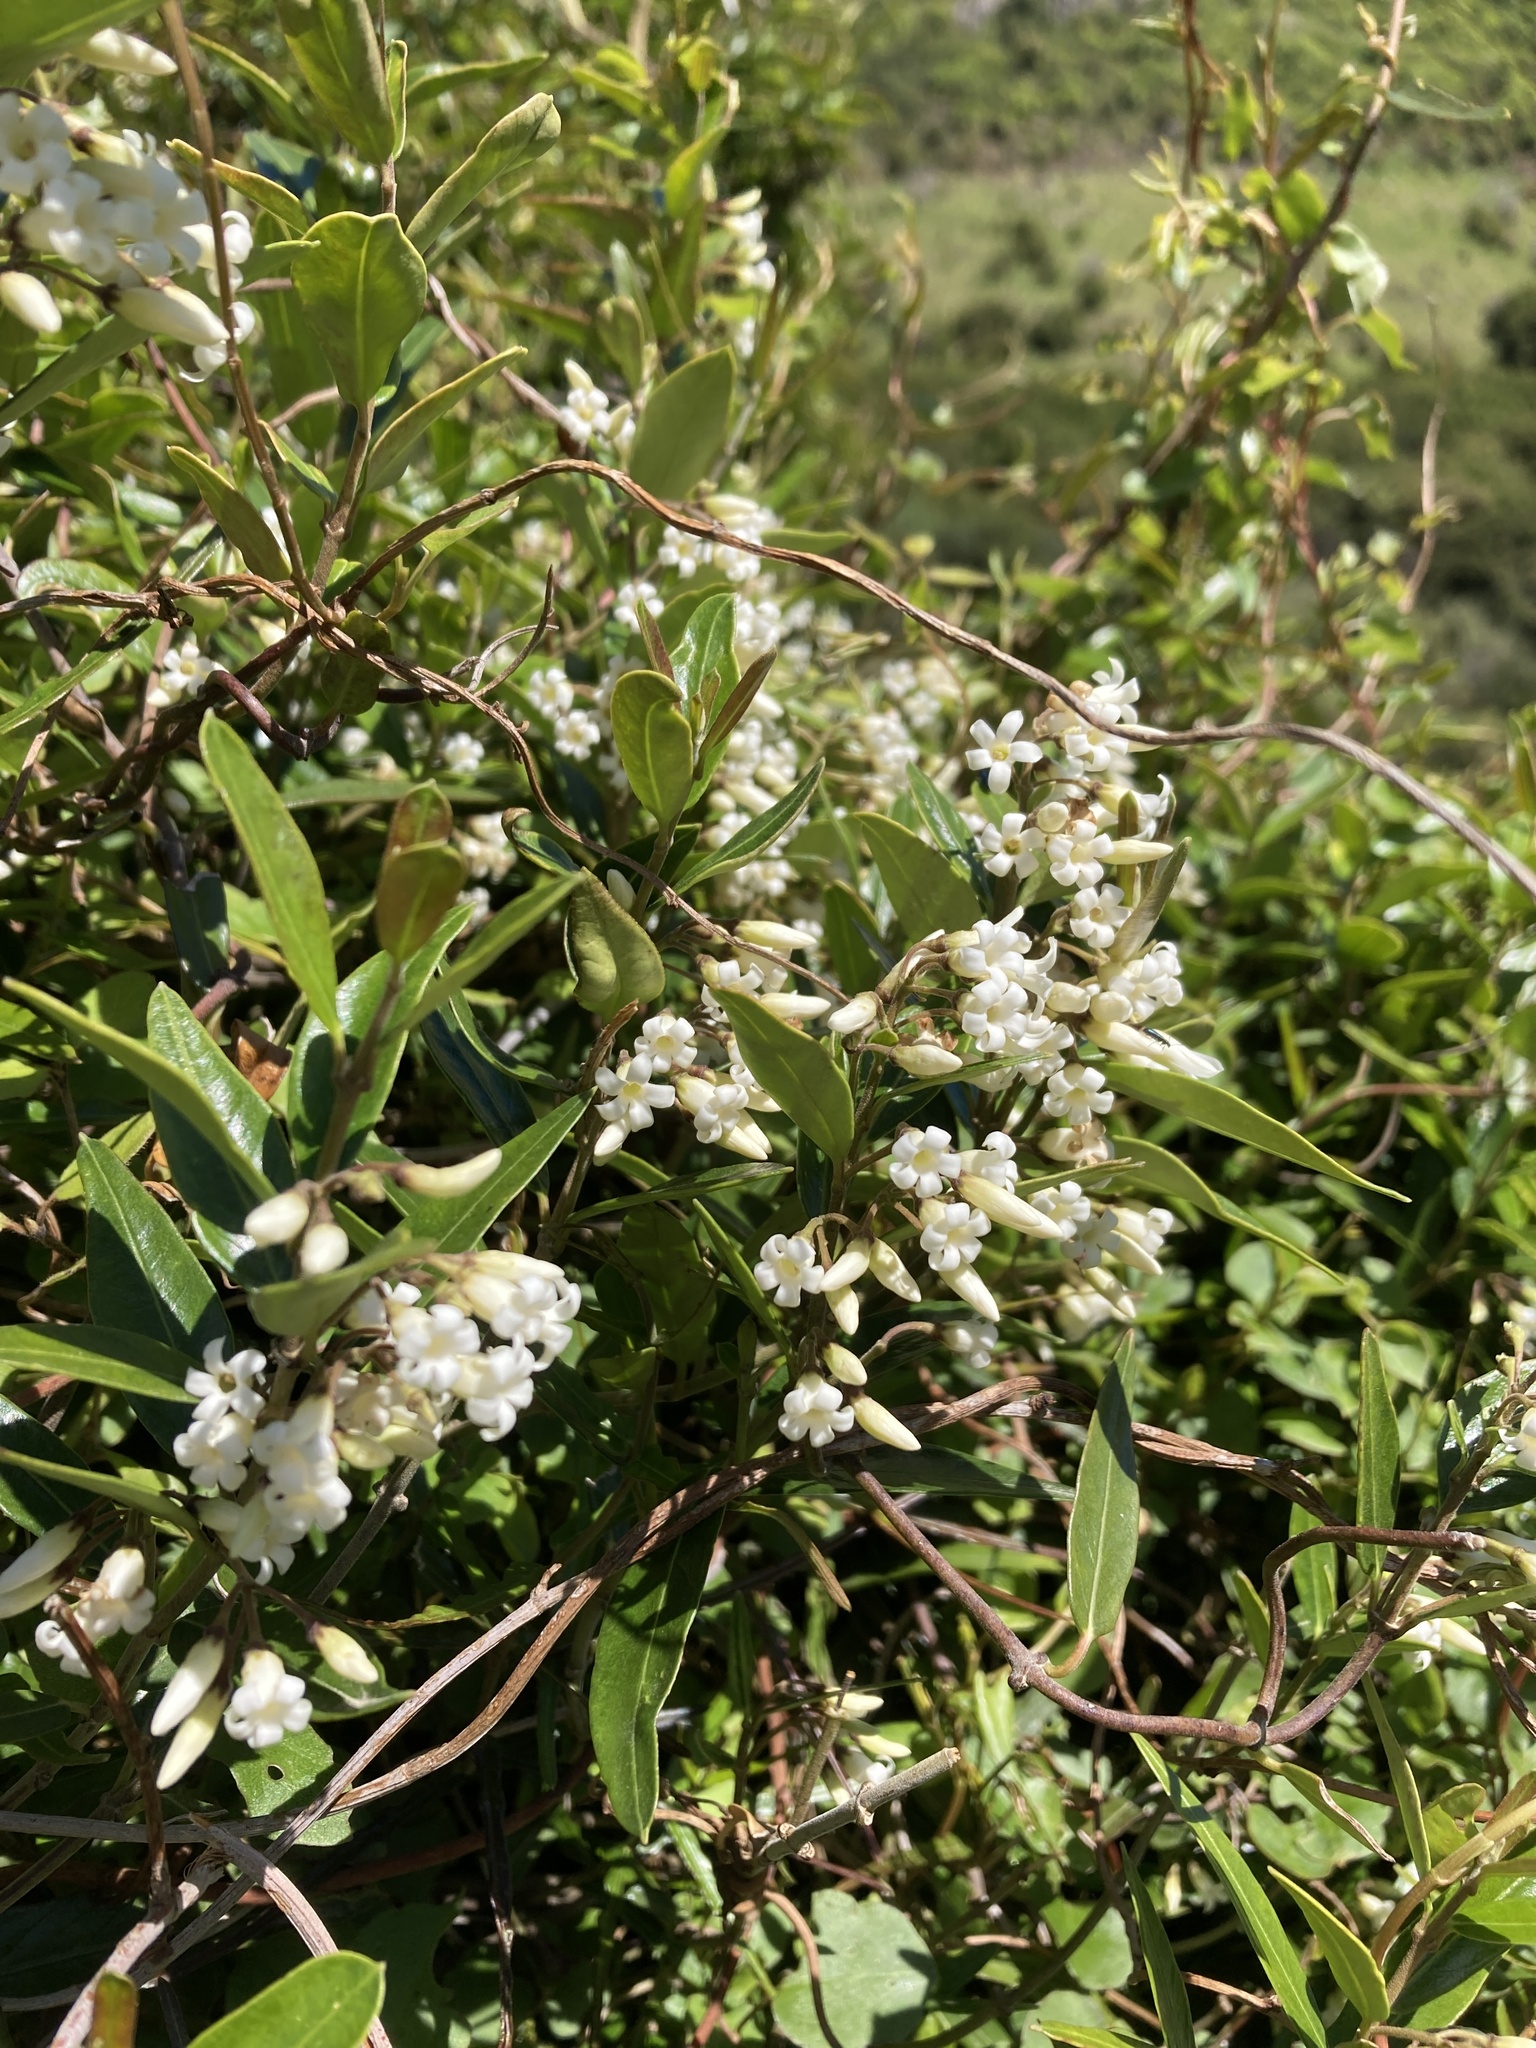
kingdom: Plantae
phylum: Tracheophyta
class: Magnoliopsida
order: Gentianales
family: Apocynaceae
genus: Parsonsia
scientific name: Parsonsia heterophylla
